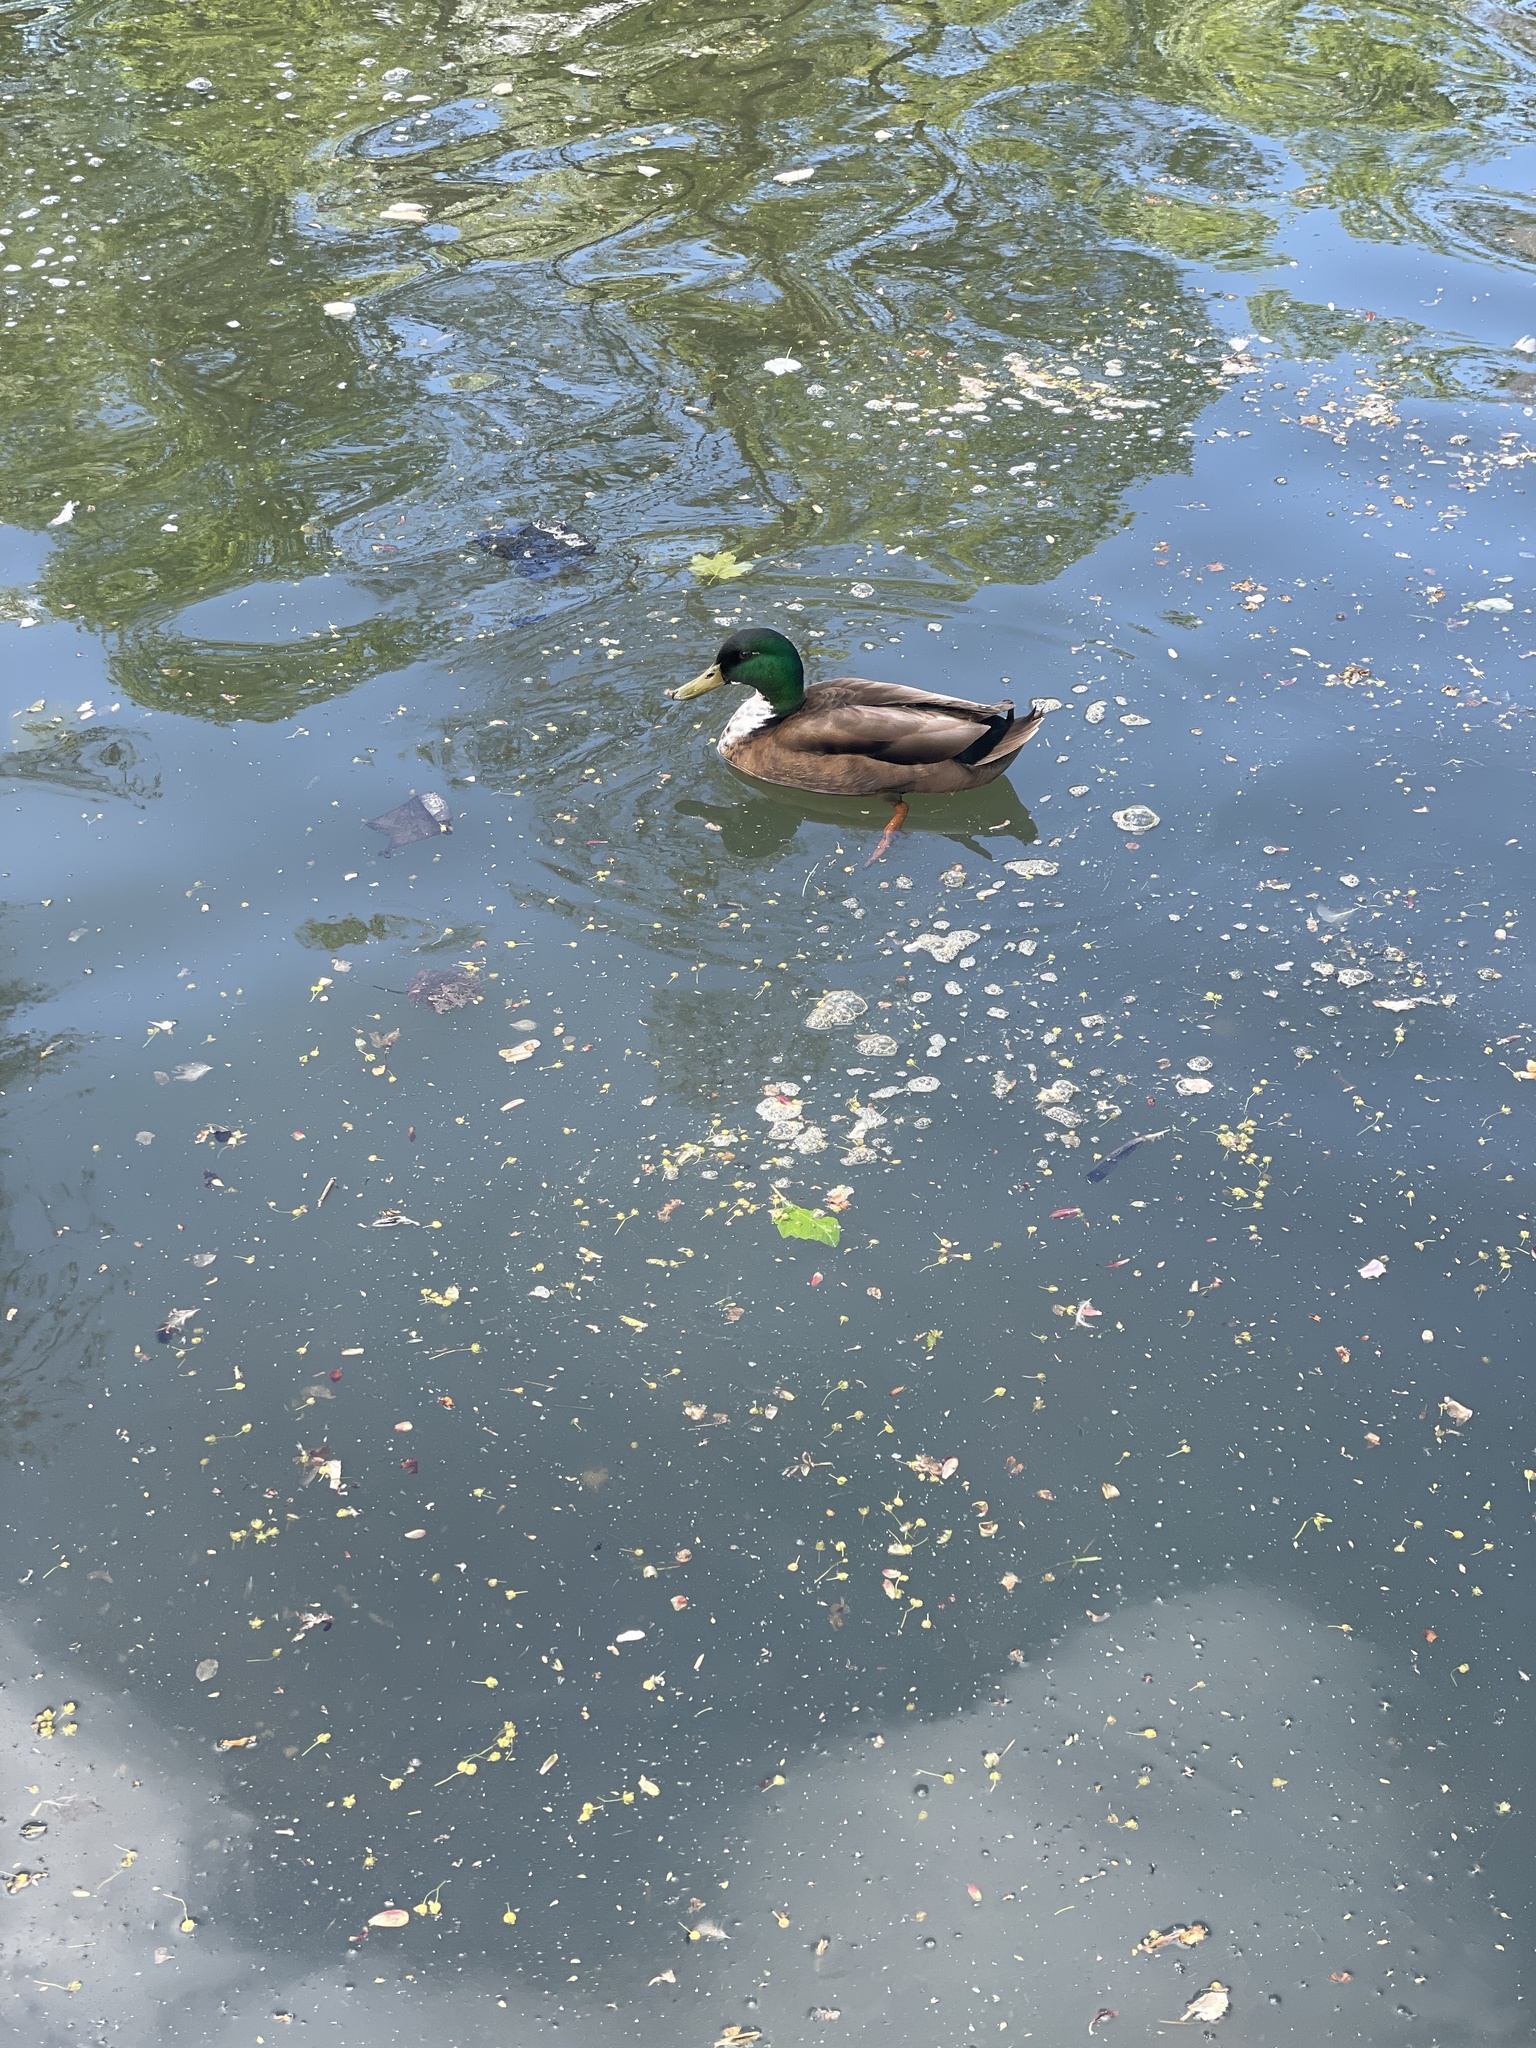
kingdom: Animalia
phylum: Chordata
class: Aves
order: Anseriformes
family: Anatidae
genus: Anas
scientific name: Anas platyrhynchos
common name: Mallard
